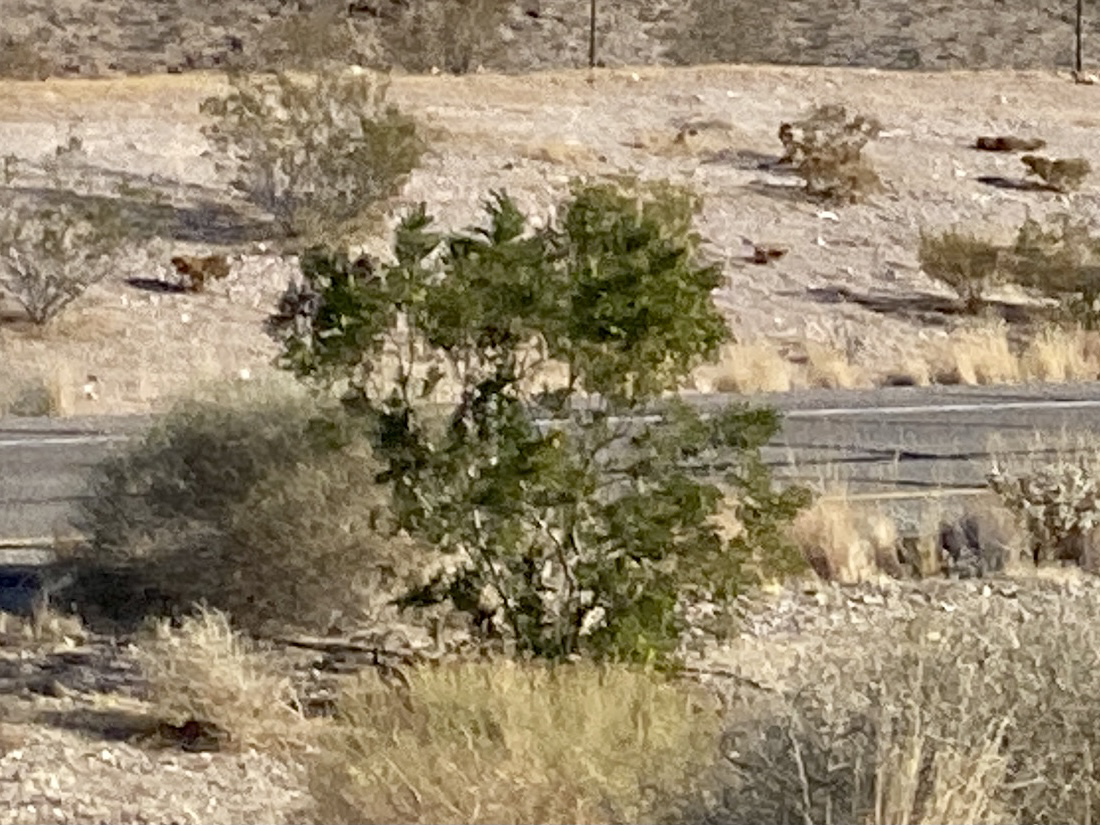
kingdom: Plantae
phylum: Tracheophyta
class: Magnoliopsida
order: Zygophyllales
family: Zygophyllaceae
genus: Larrea
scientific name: Larrea tridentata
